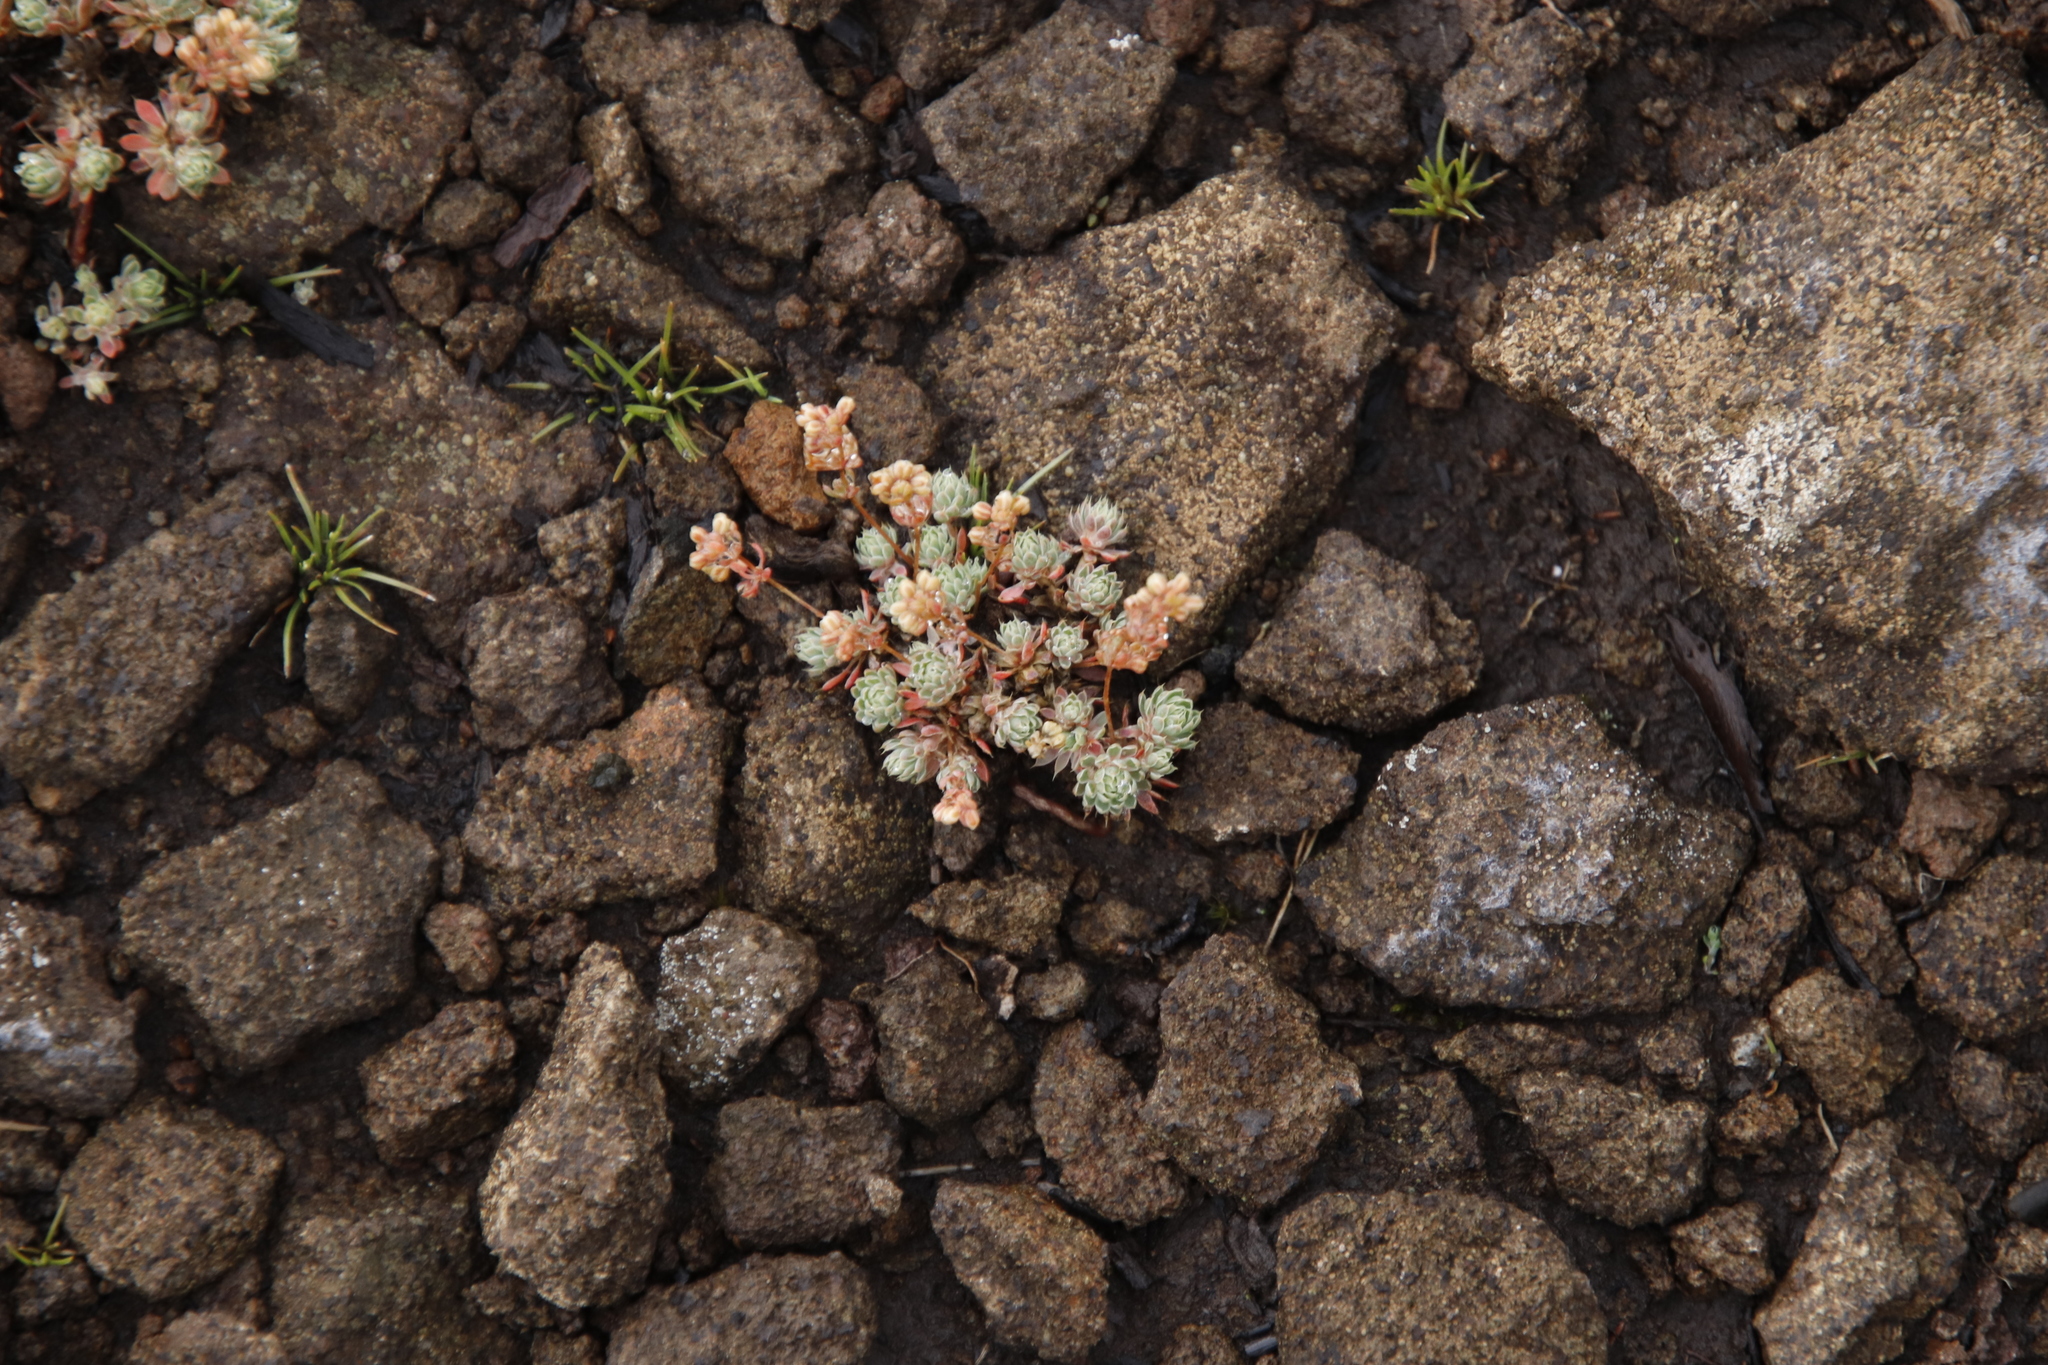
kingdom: Plantae
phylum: Tracheophyta
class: Magnoliopsida
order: Caryophyllales
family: Molluginaceae
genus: Psammotropha
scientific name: Psammotropha mucronata
